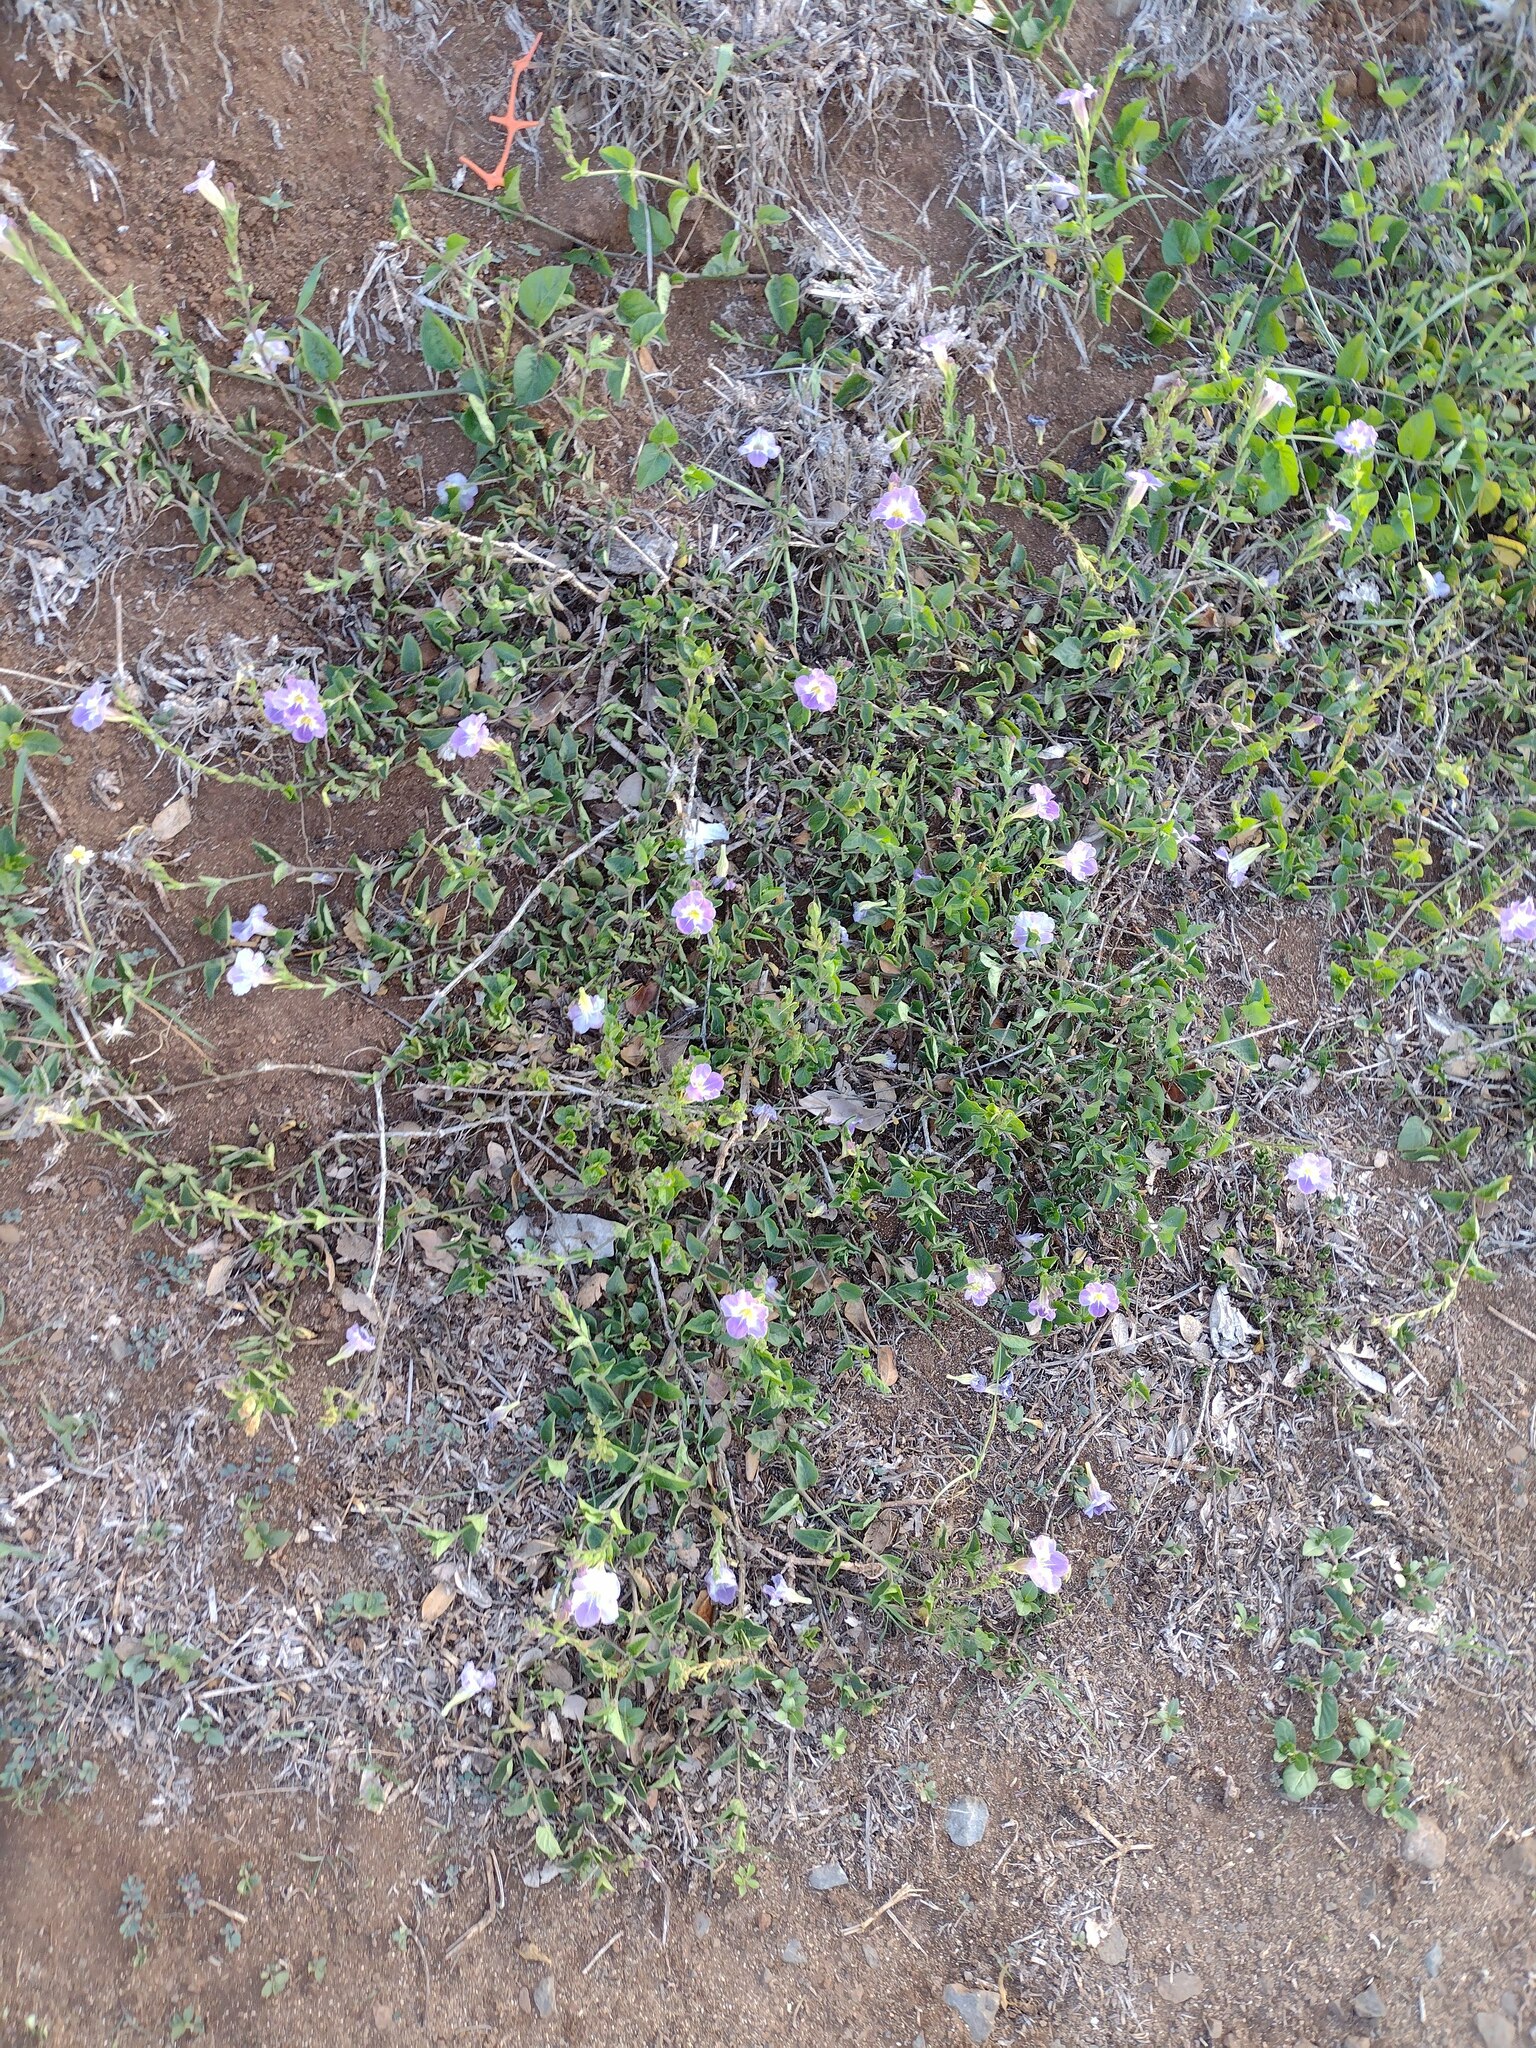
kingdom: Plantae
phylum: Tracheophyta
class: Magnoliopsida
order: Lamiales
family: Acanthaceae
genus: Asystasia
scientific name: Asystasia gangetica
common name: Chinese violet
